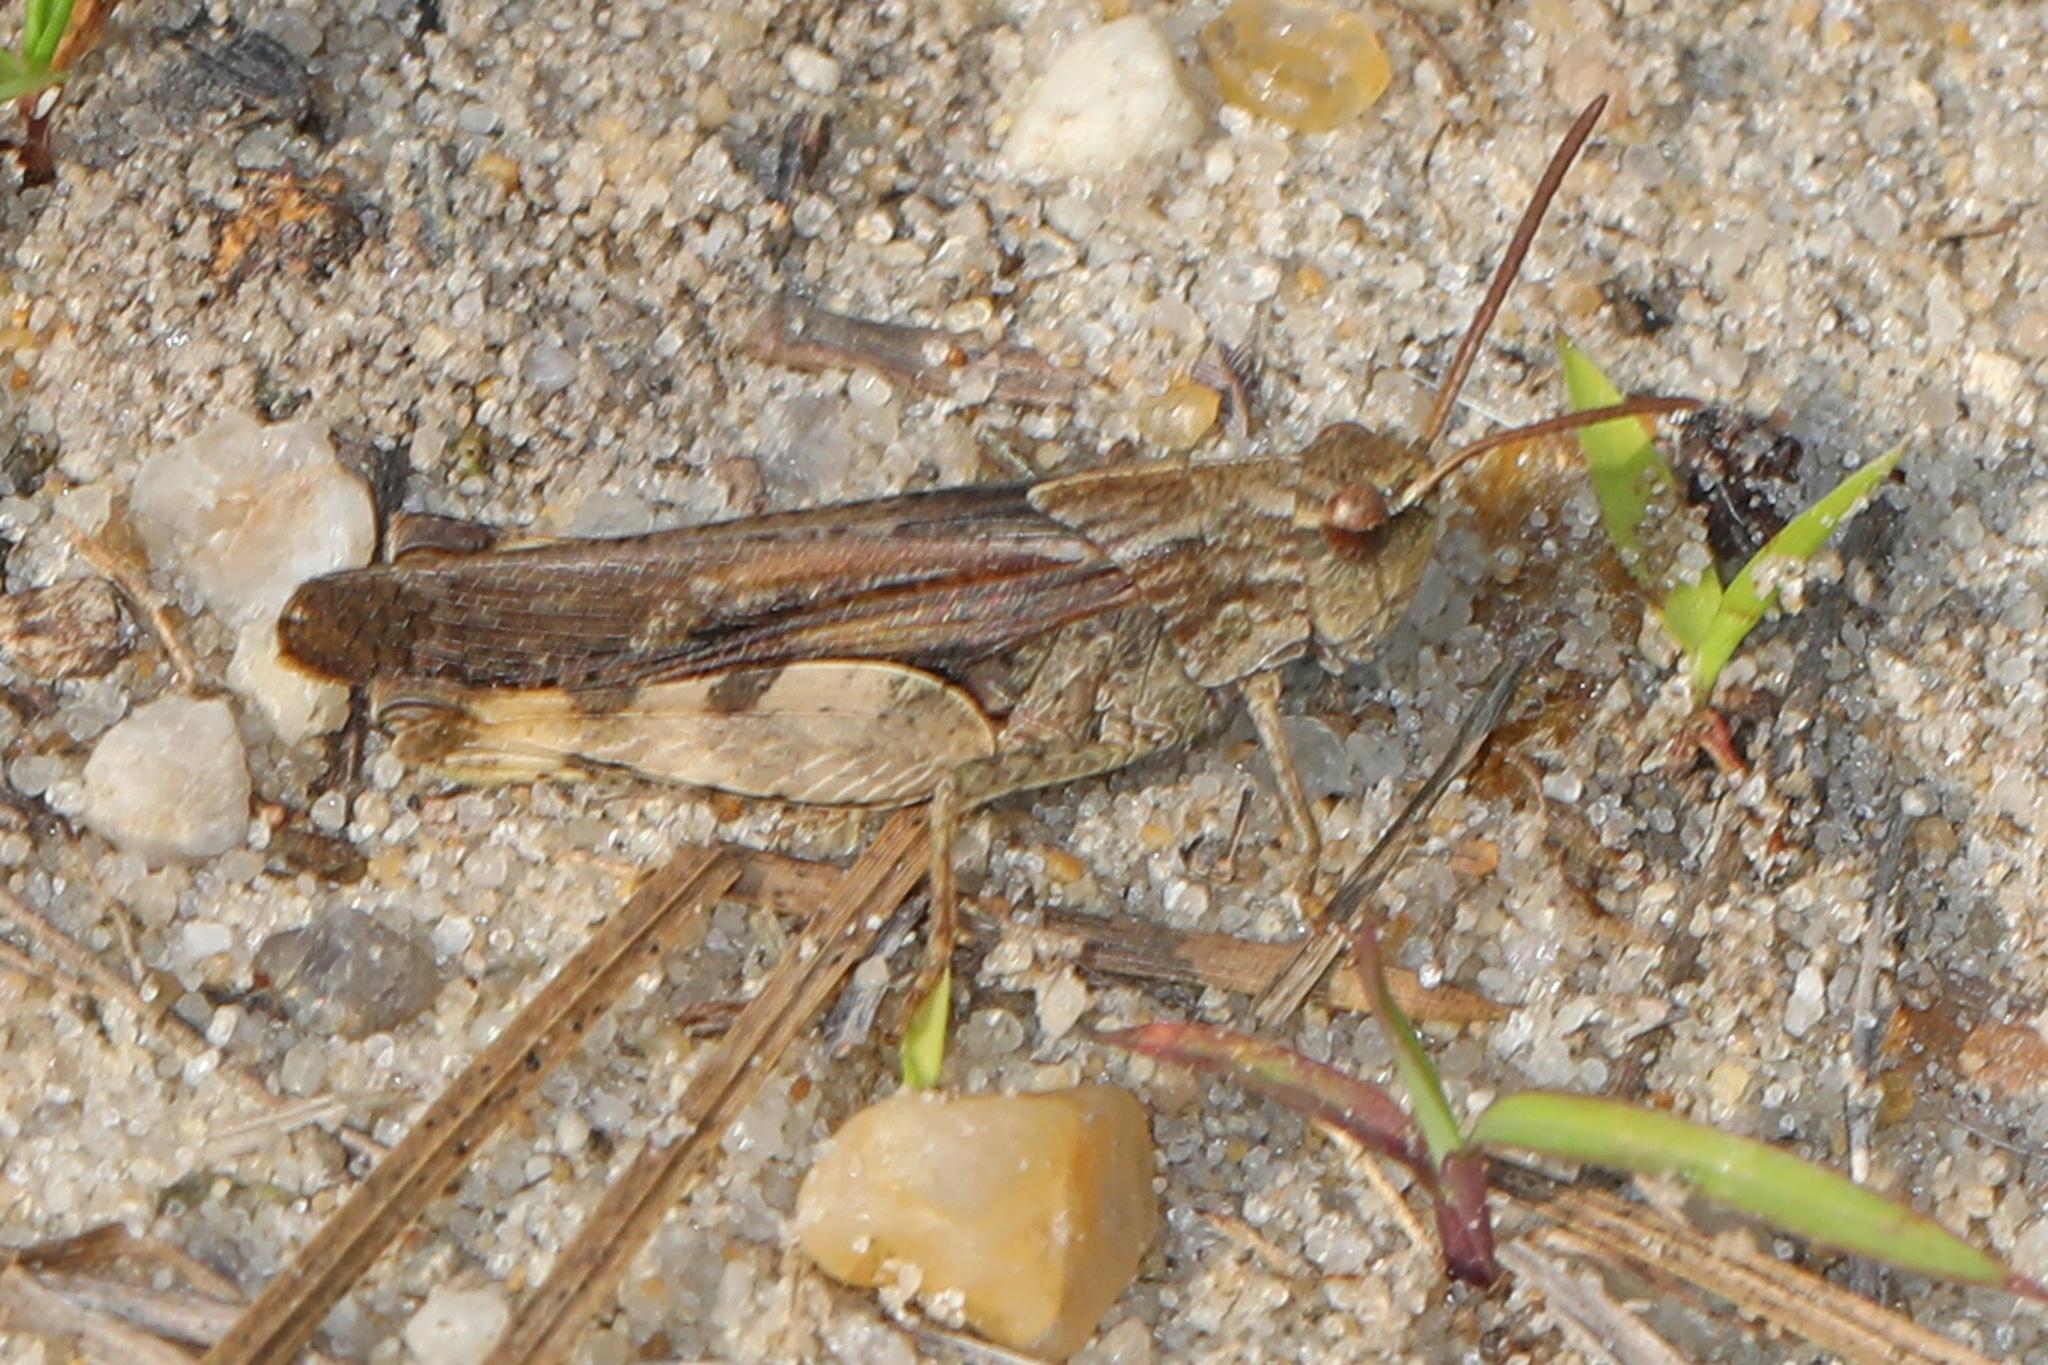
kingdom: Animalia
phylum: Arthropoda
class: Insecta
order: Orthoptera
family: Acrididae
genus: Chortophaga
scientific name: Chortophaga viridifasciata
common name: Green-striped grasshopper
